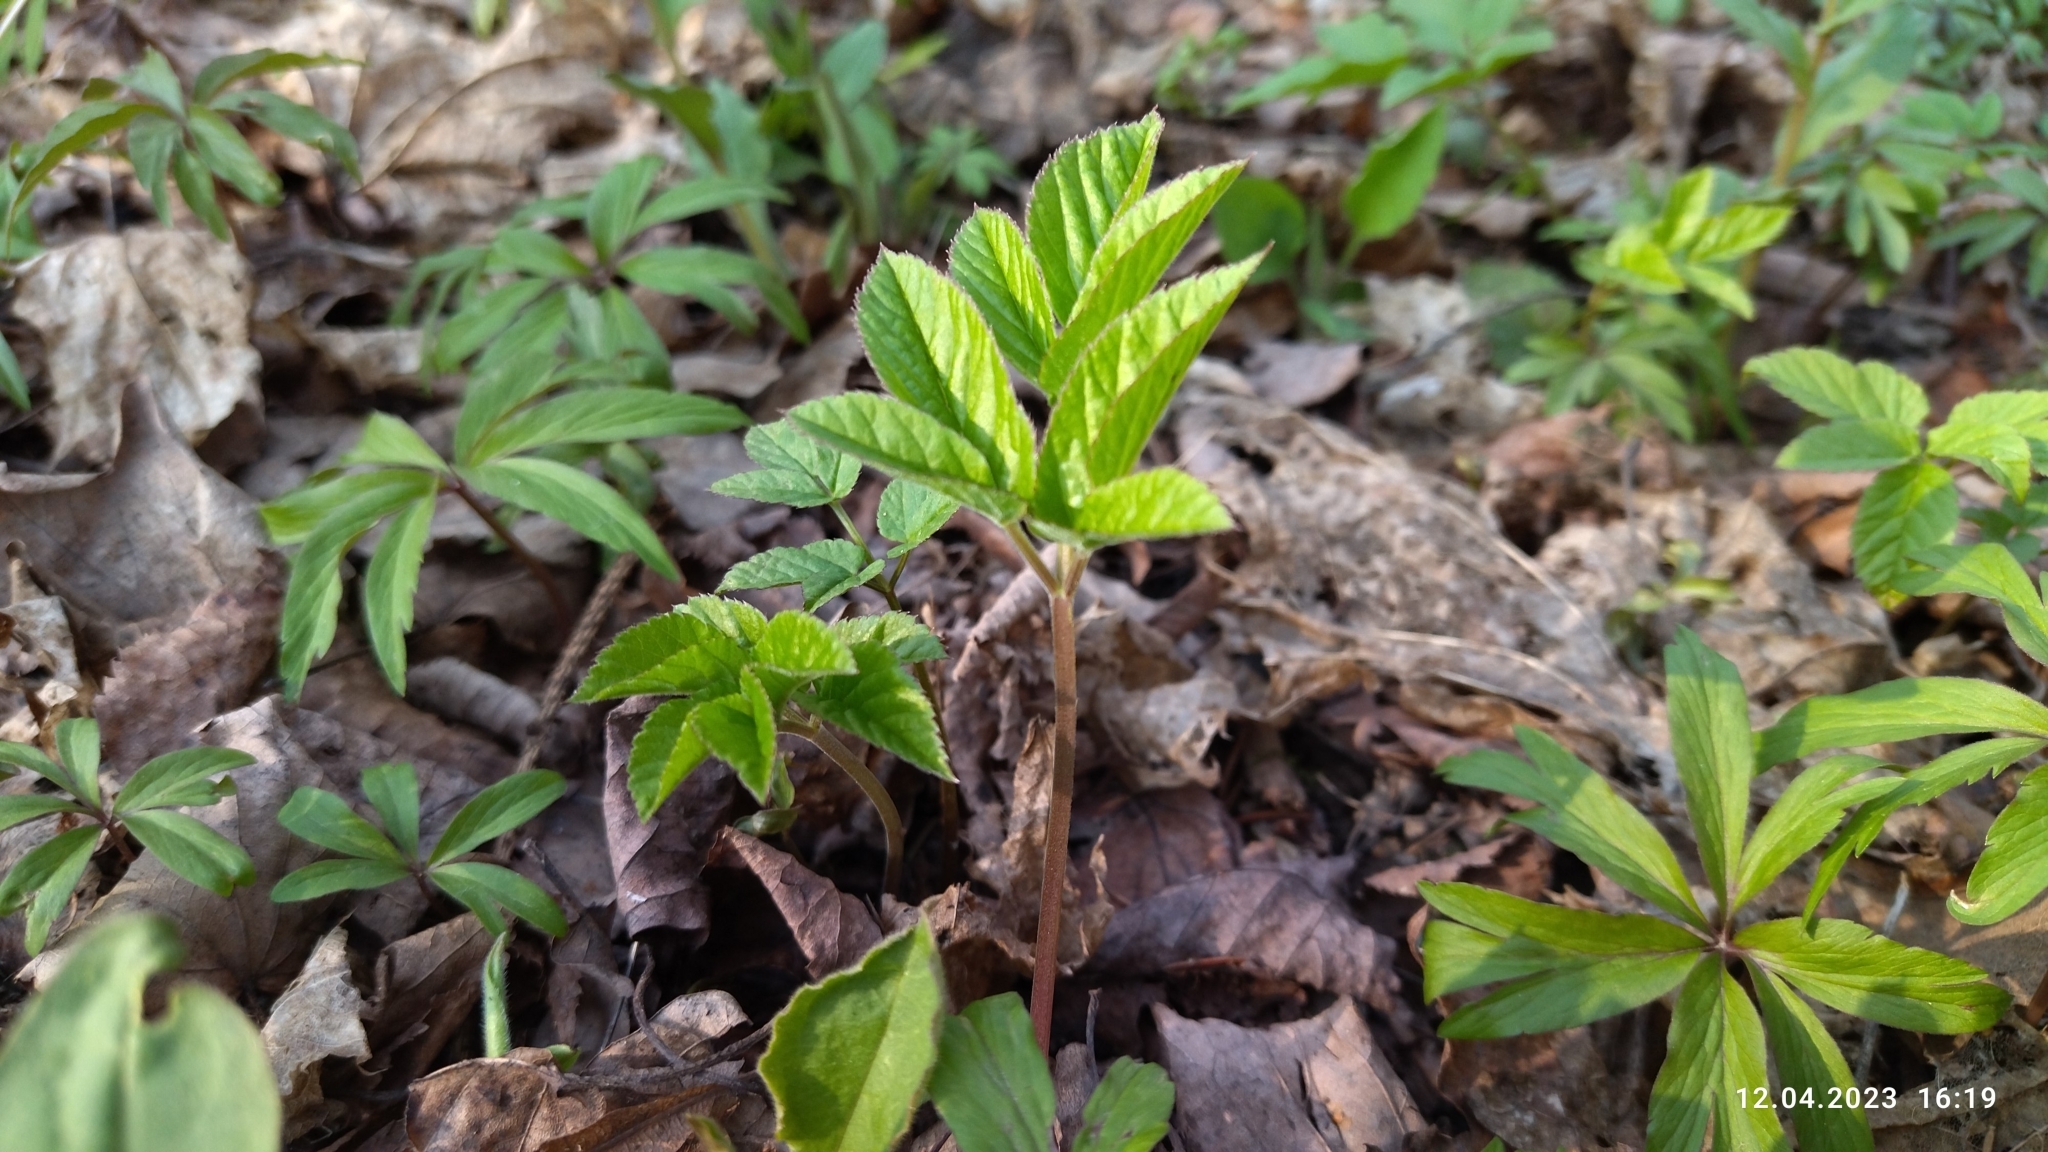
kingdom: Plantae
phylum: Tracheophyta
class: Magnoliopsida
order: Apiales
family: Apiaceae
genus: Aegopodium
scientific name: Aegopodium podagraria
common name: Ground-elder
